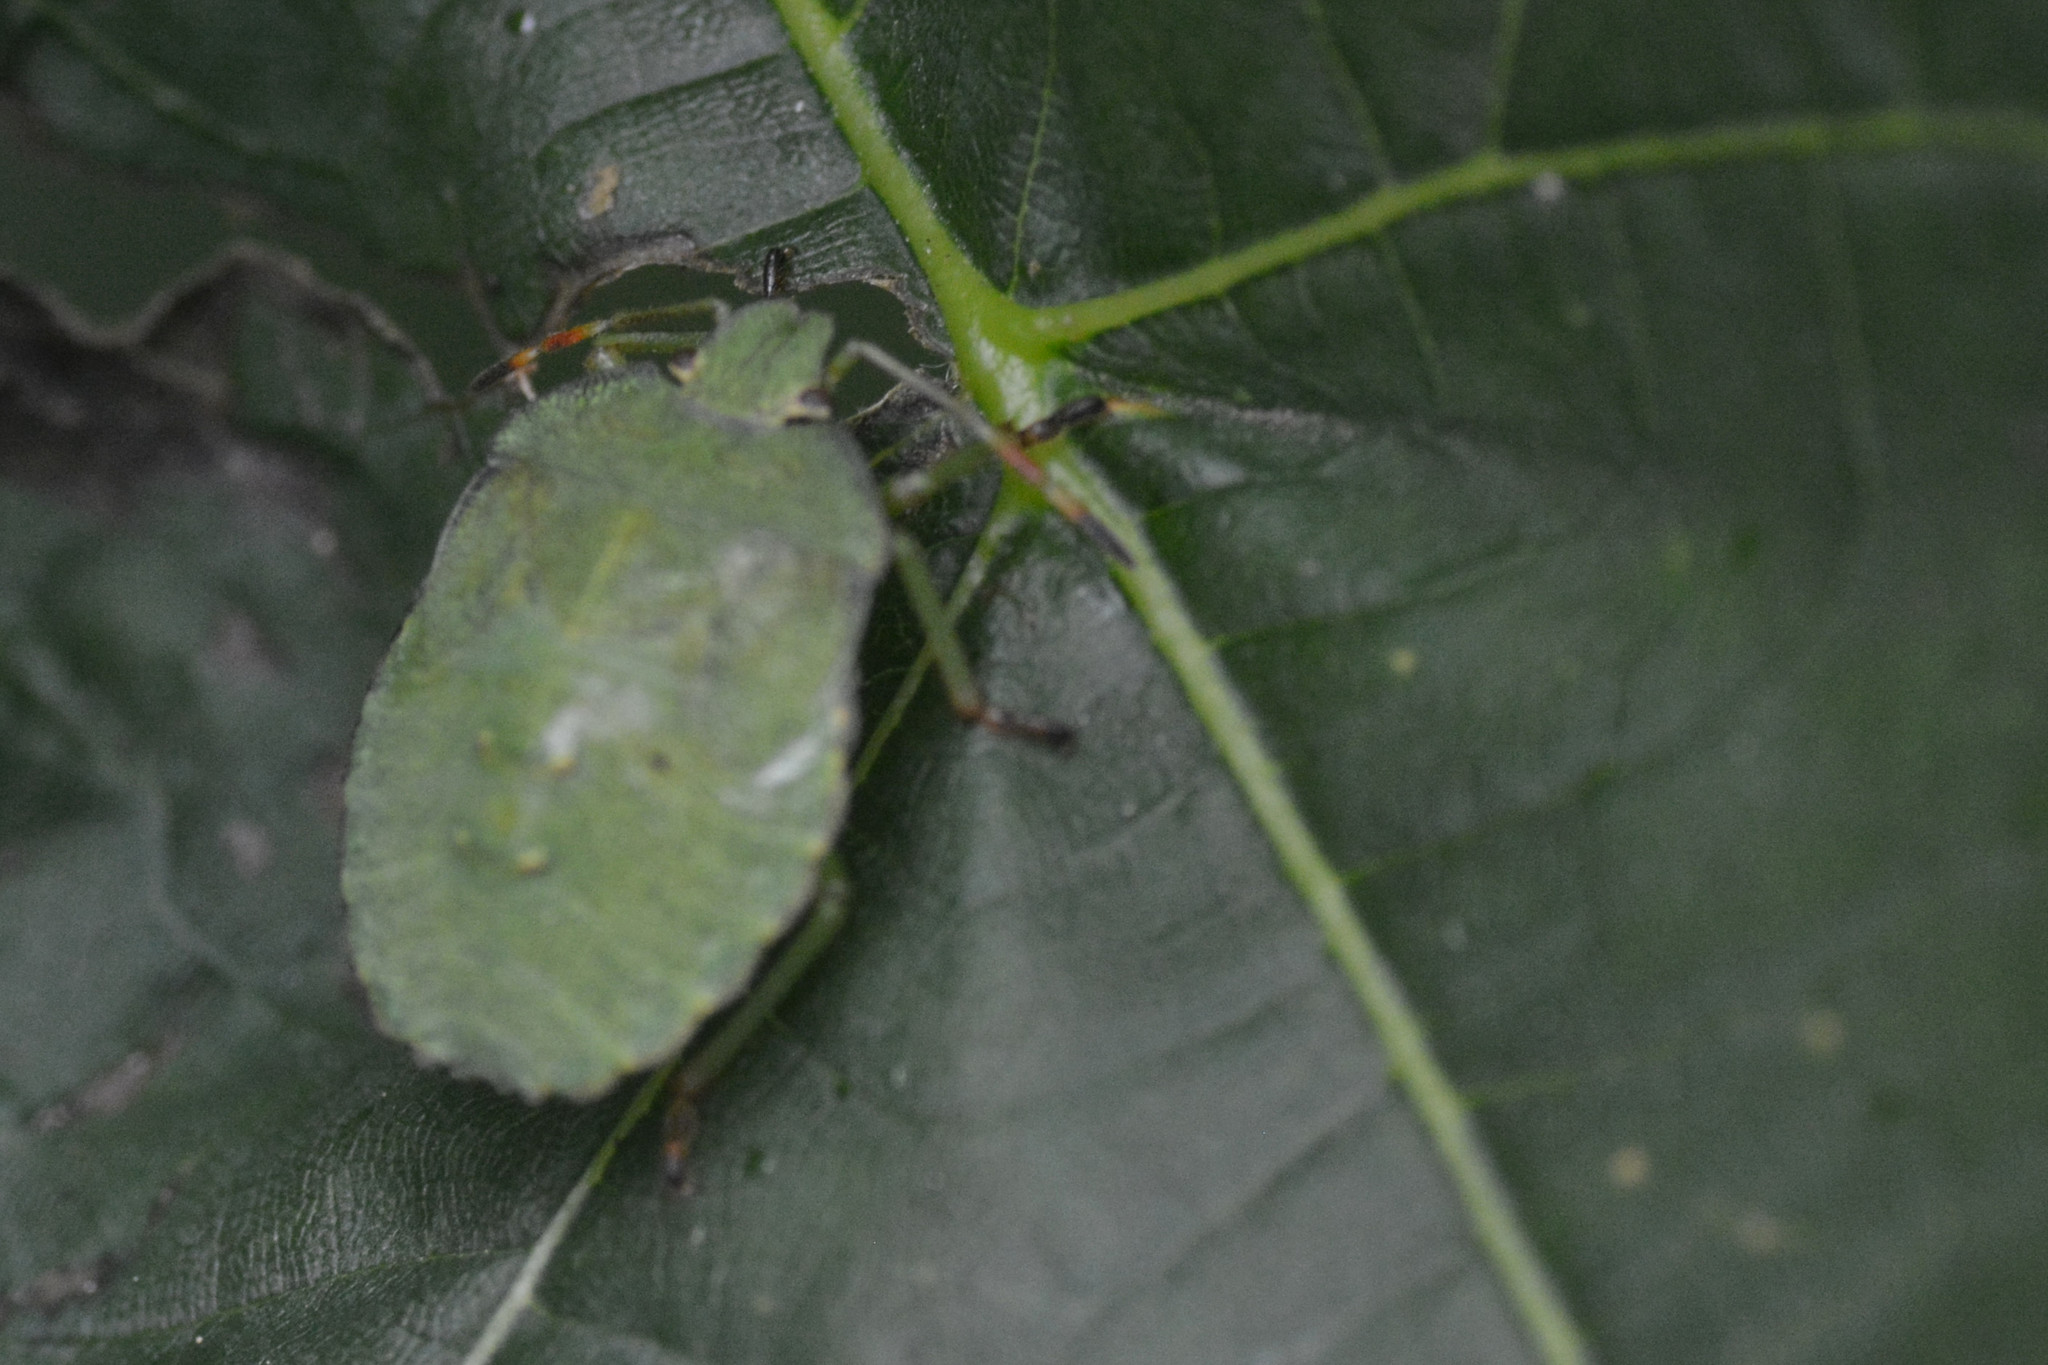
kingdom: Animalia
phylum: Arthropoda
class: Insecta
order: Hemiptera
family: Pentatomidae
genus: Palomena
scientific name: Palomena prasina
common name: Green shieldbug
